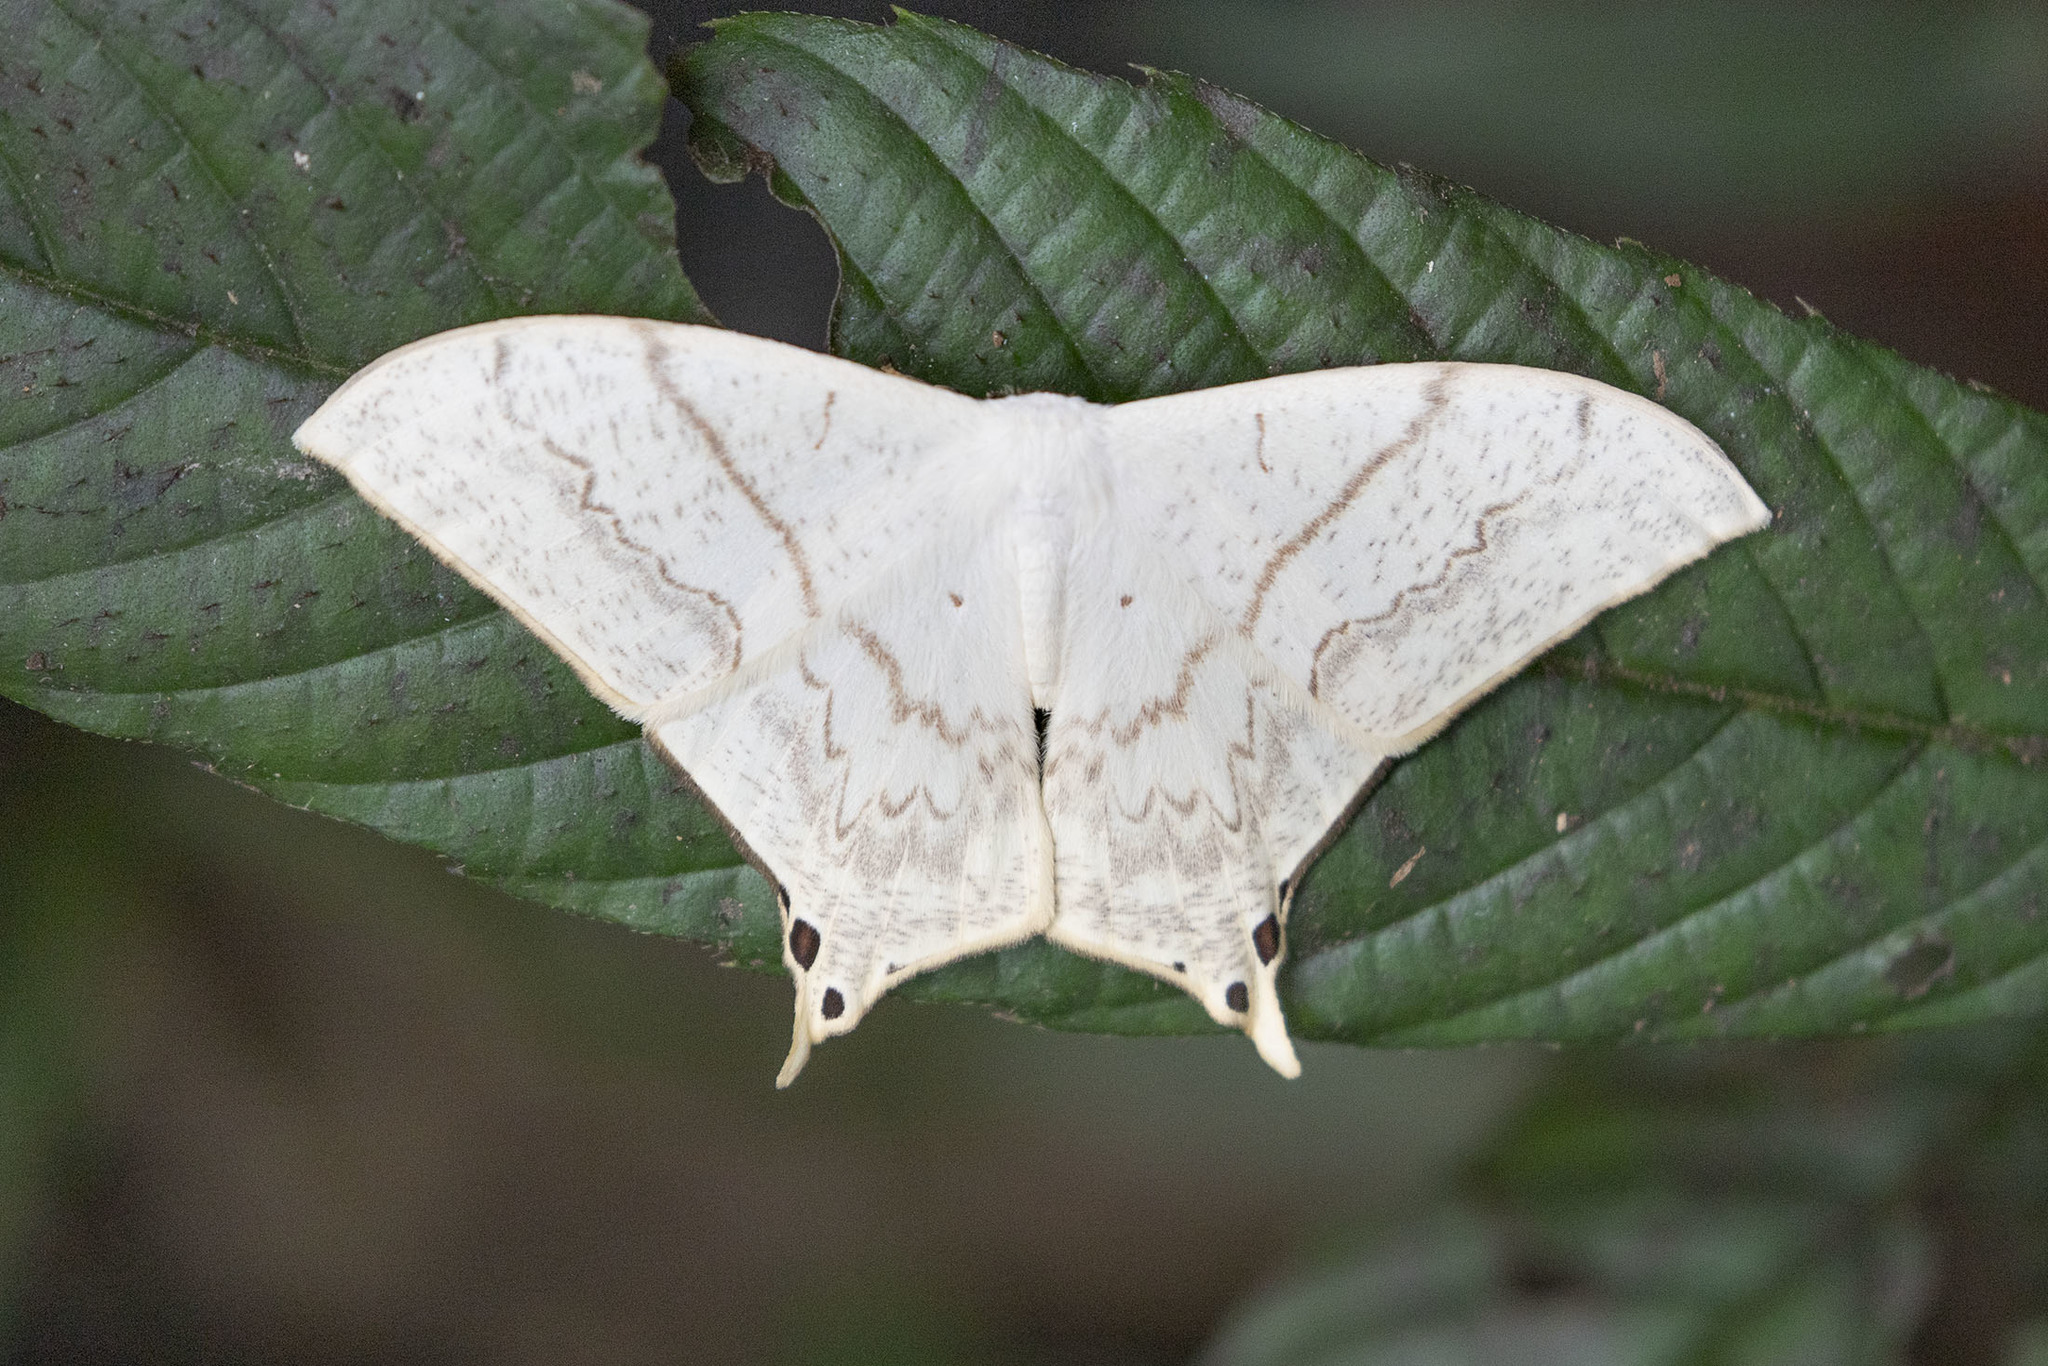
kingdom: Animalia
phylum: Arthropoda
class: Insecta
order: Lepidoptera
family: Saturniidae
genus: Therinia
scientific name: Therinia lactucina
